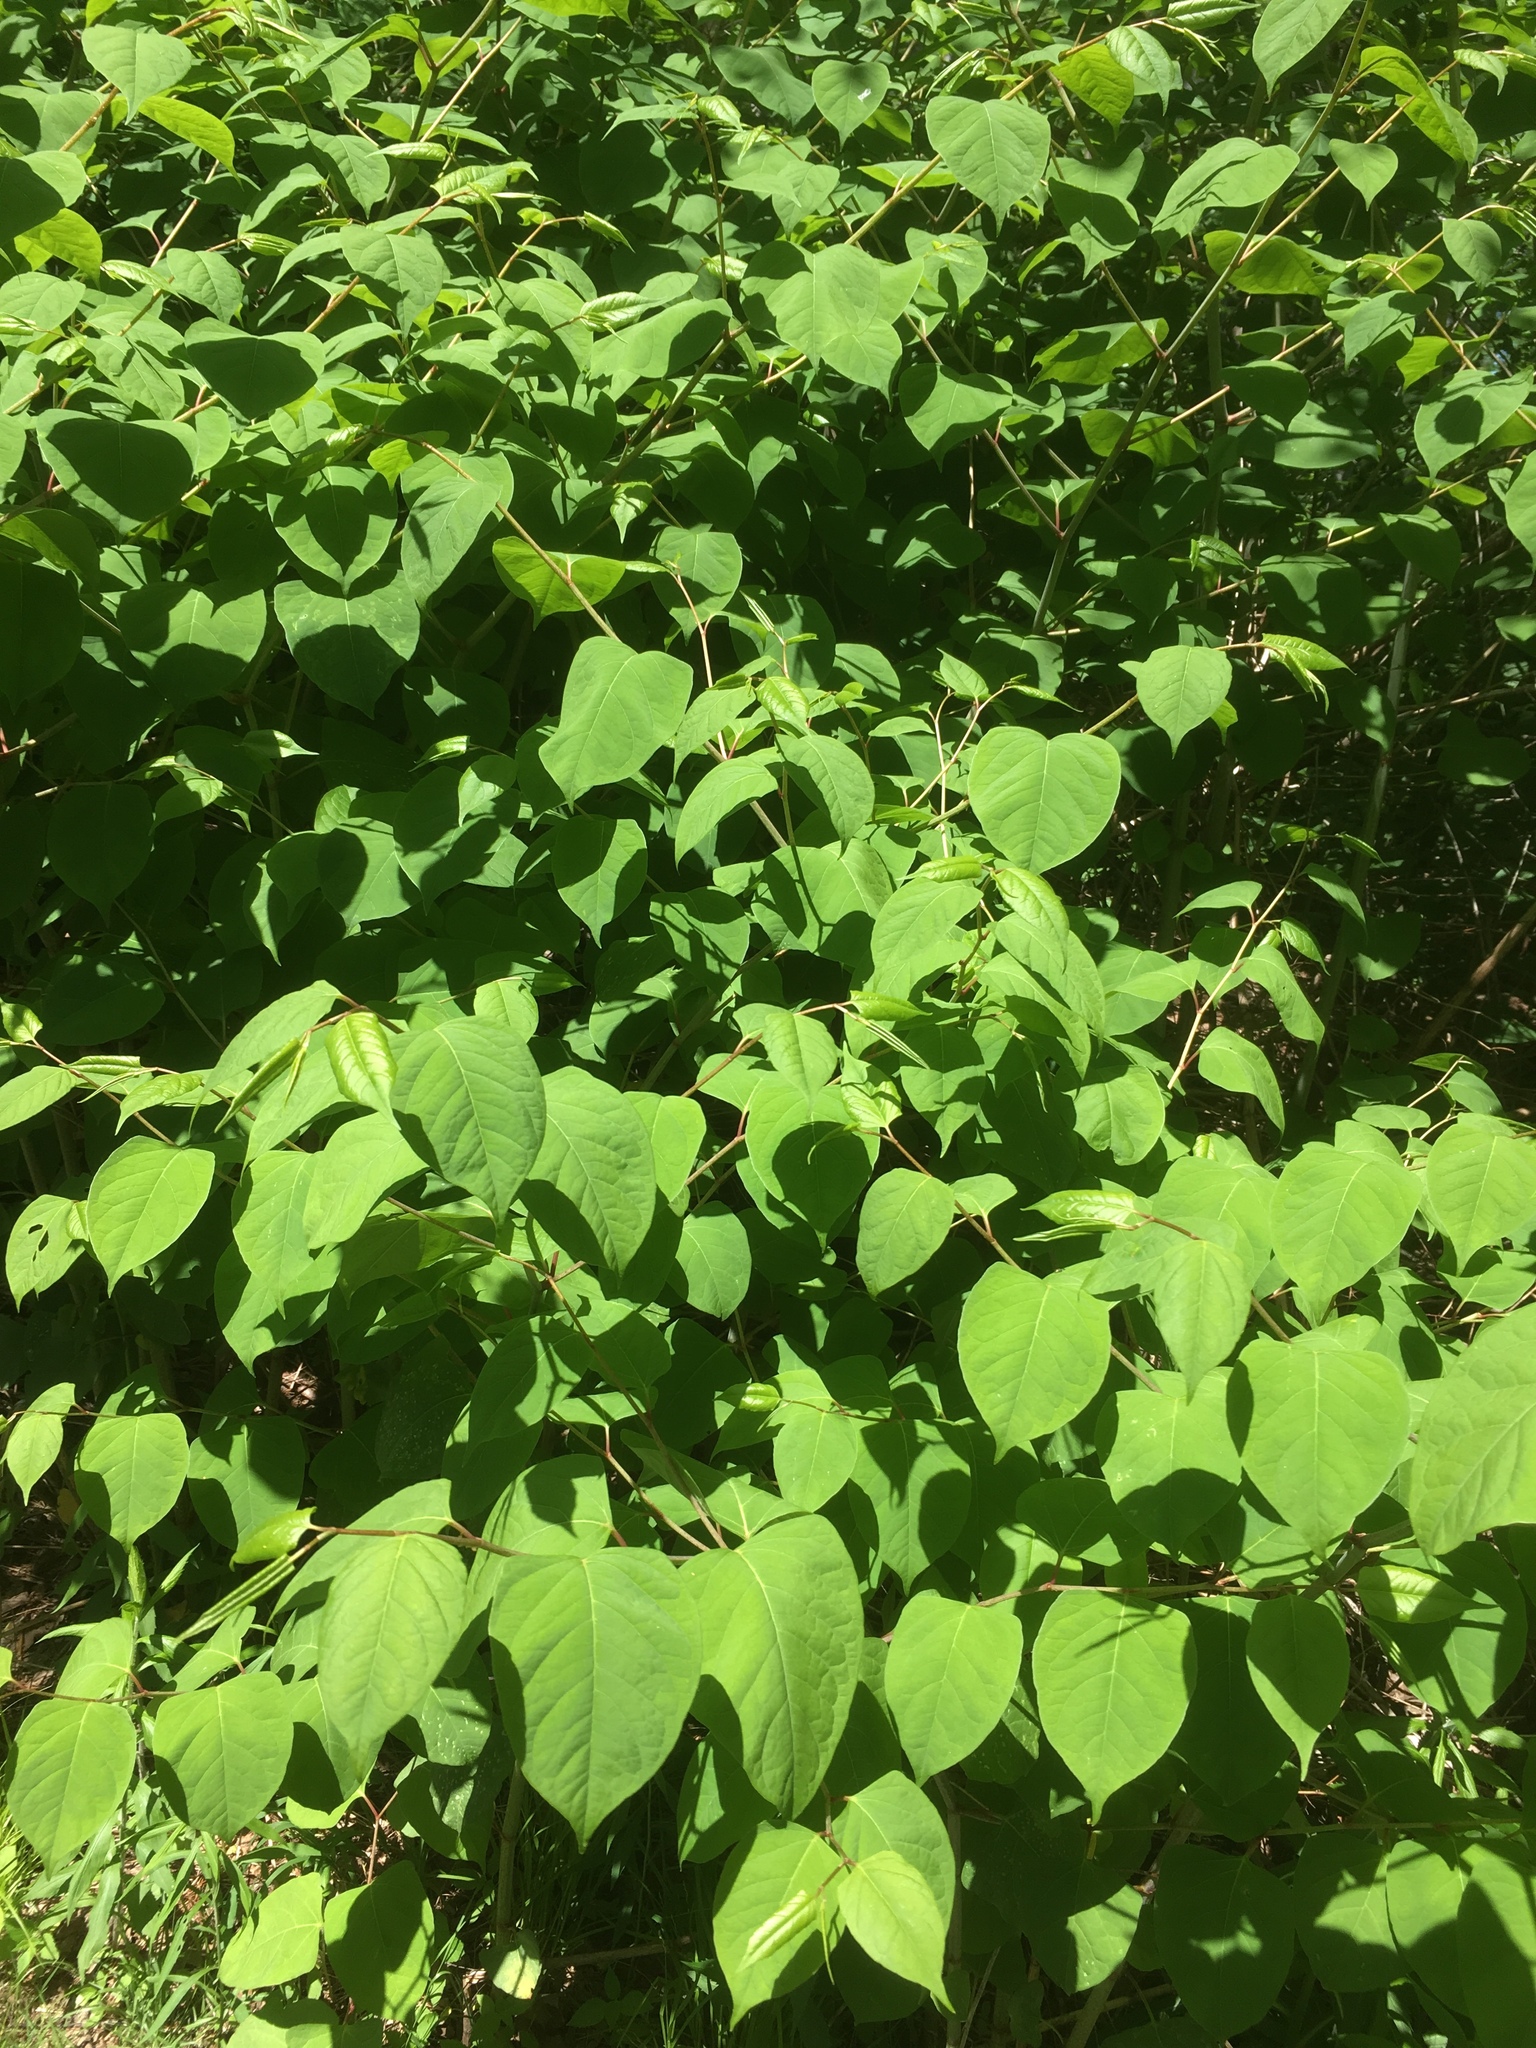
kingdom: Plantae
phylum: Tracheophyta
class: Magnoliopsida
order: Caryophyllales
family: Polygonaceae
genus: Reynoutria
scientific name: Reynoutria japonica
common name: Japanese knotweed
